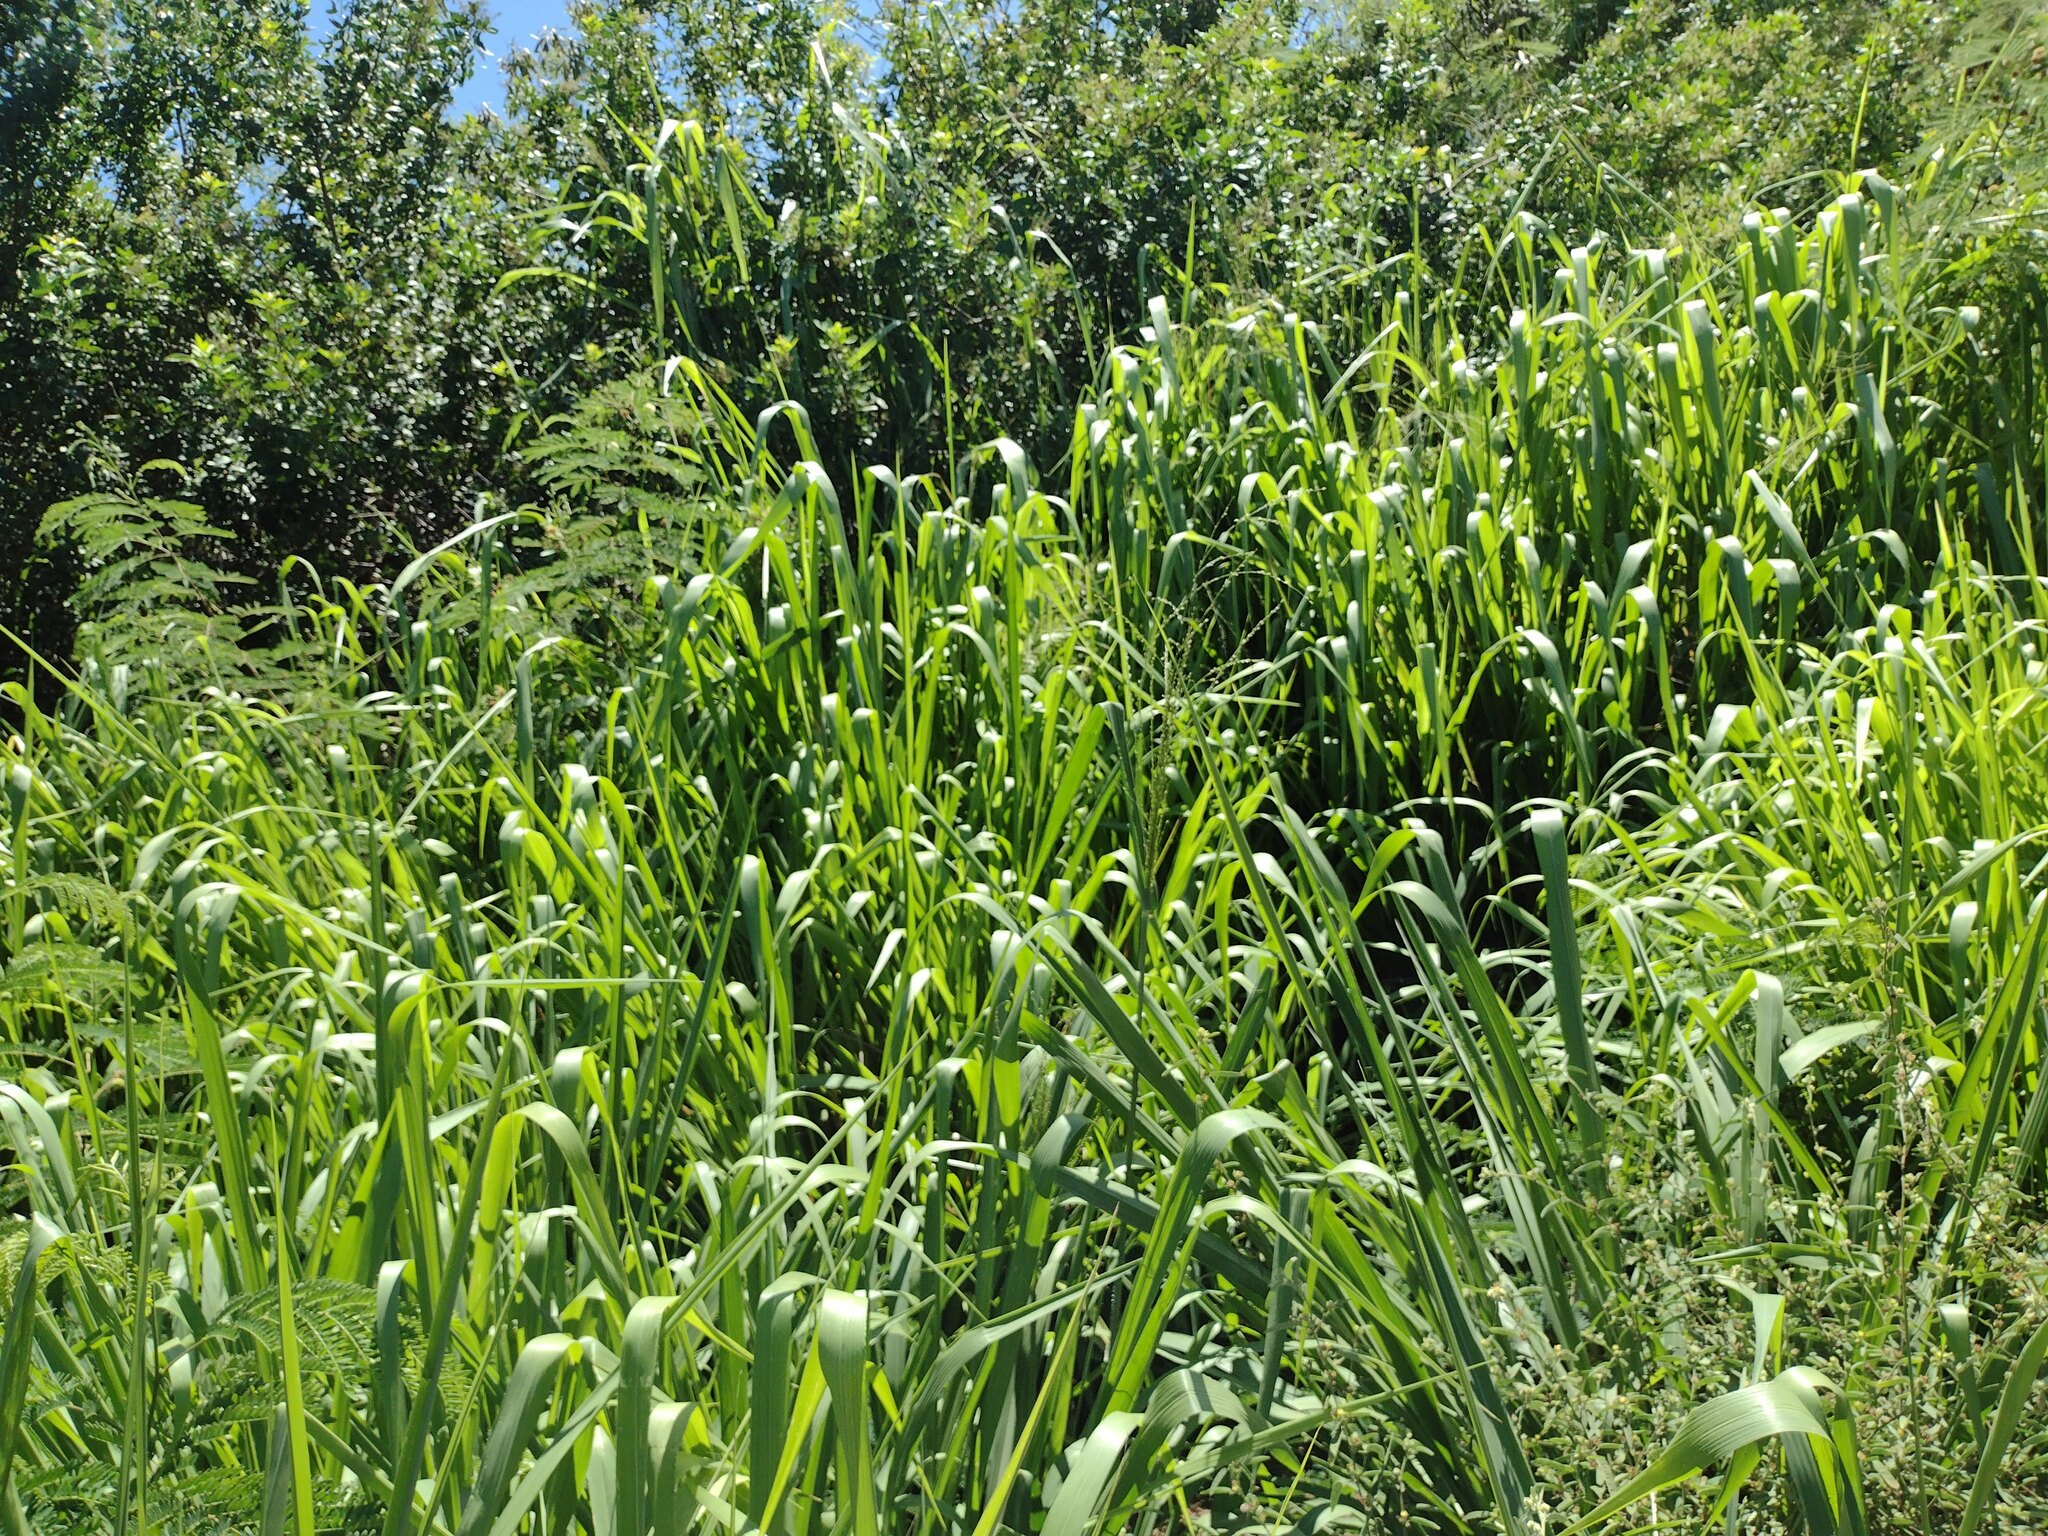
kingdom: Plantae
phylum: Tracheophyta
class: Liliopsida
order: Poales
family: Poaceae
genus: Megathyrsus
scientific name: Megathyrsus maximus
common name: Guineagrass
